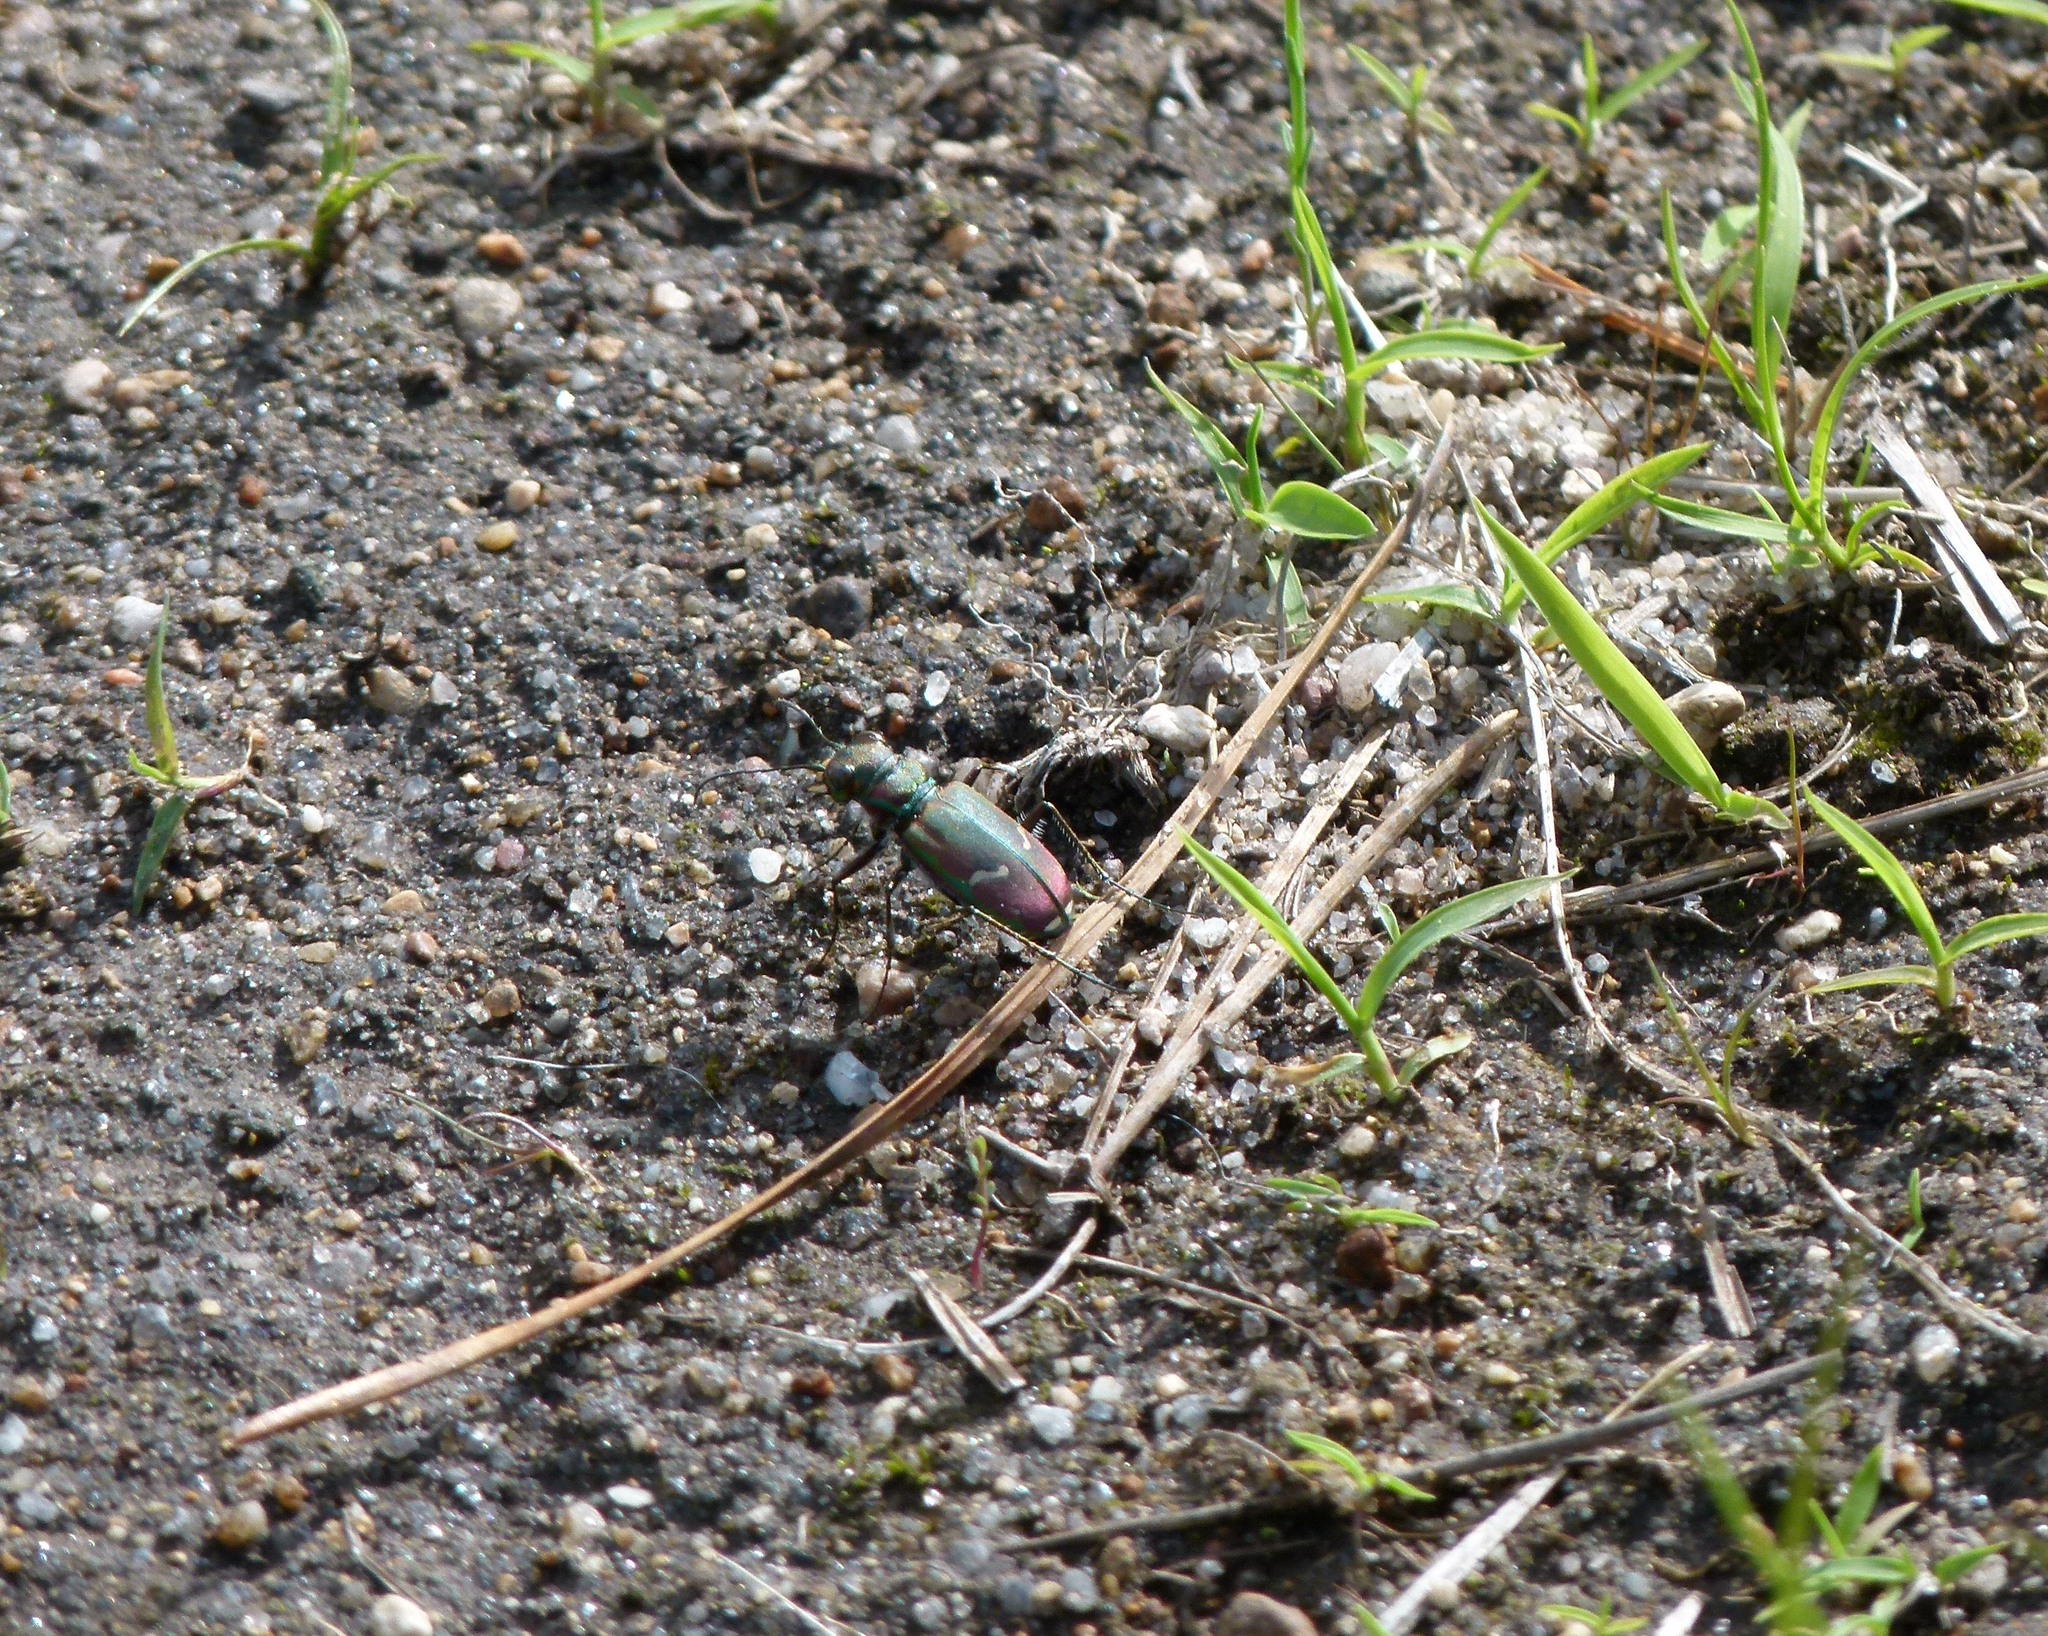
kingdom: Animalia
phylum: Arthropoda
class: Insecta
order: Coleoptera
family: Carabidae
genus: Cicindela
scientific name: Cicindela purpurea
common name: Cow path tiger beetle
